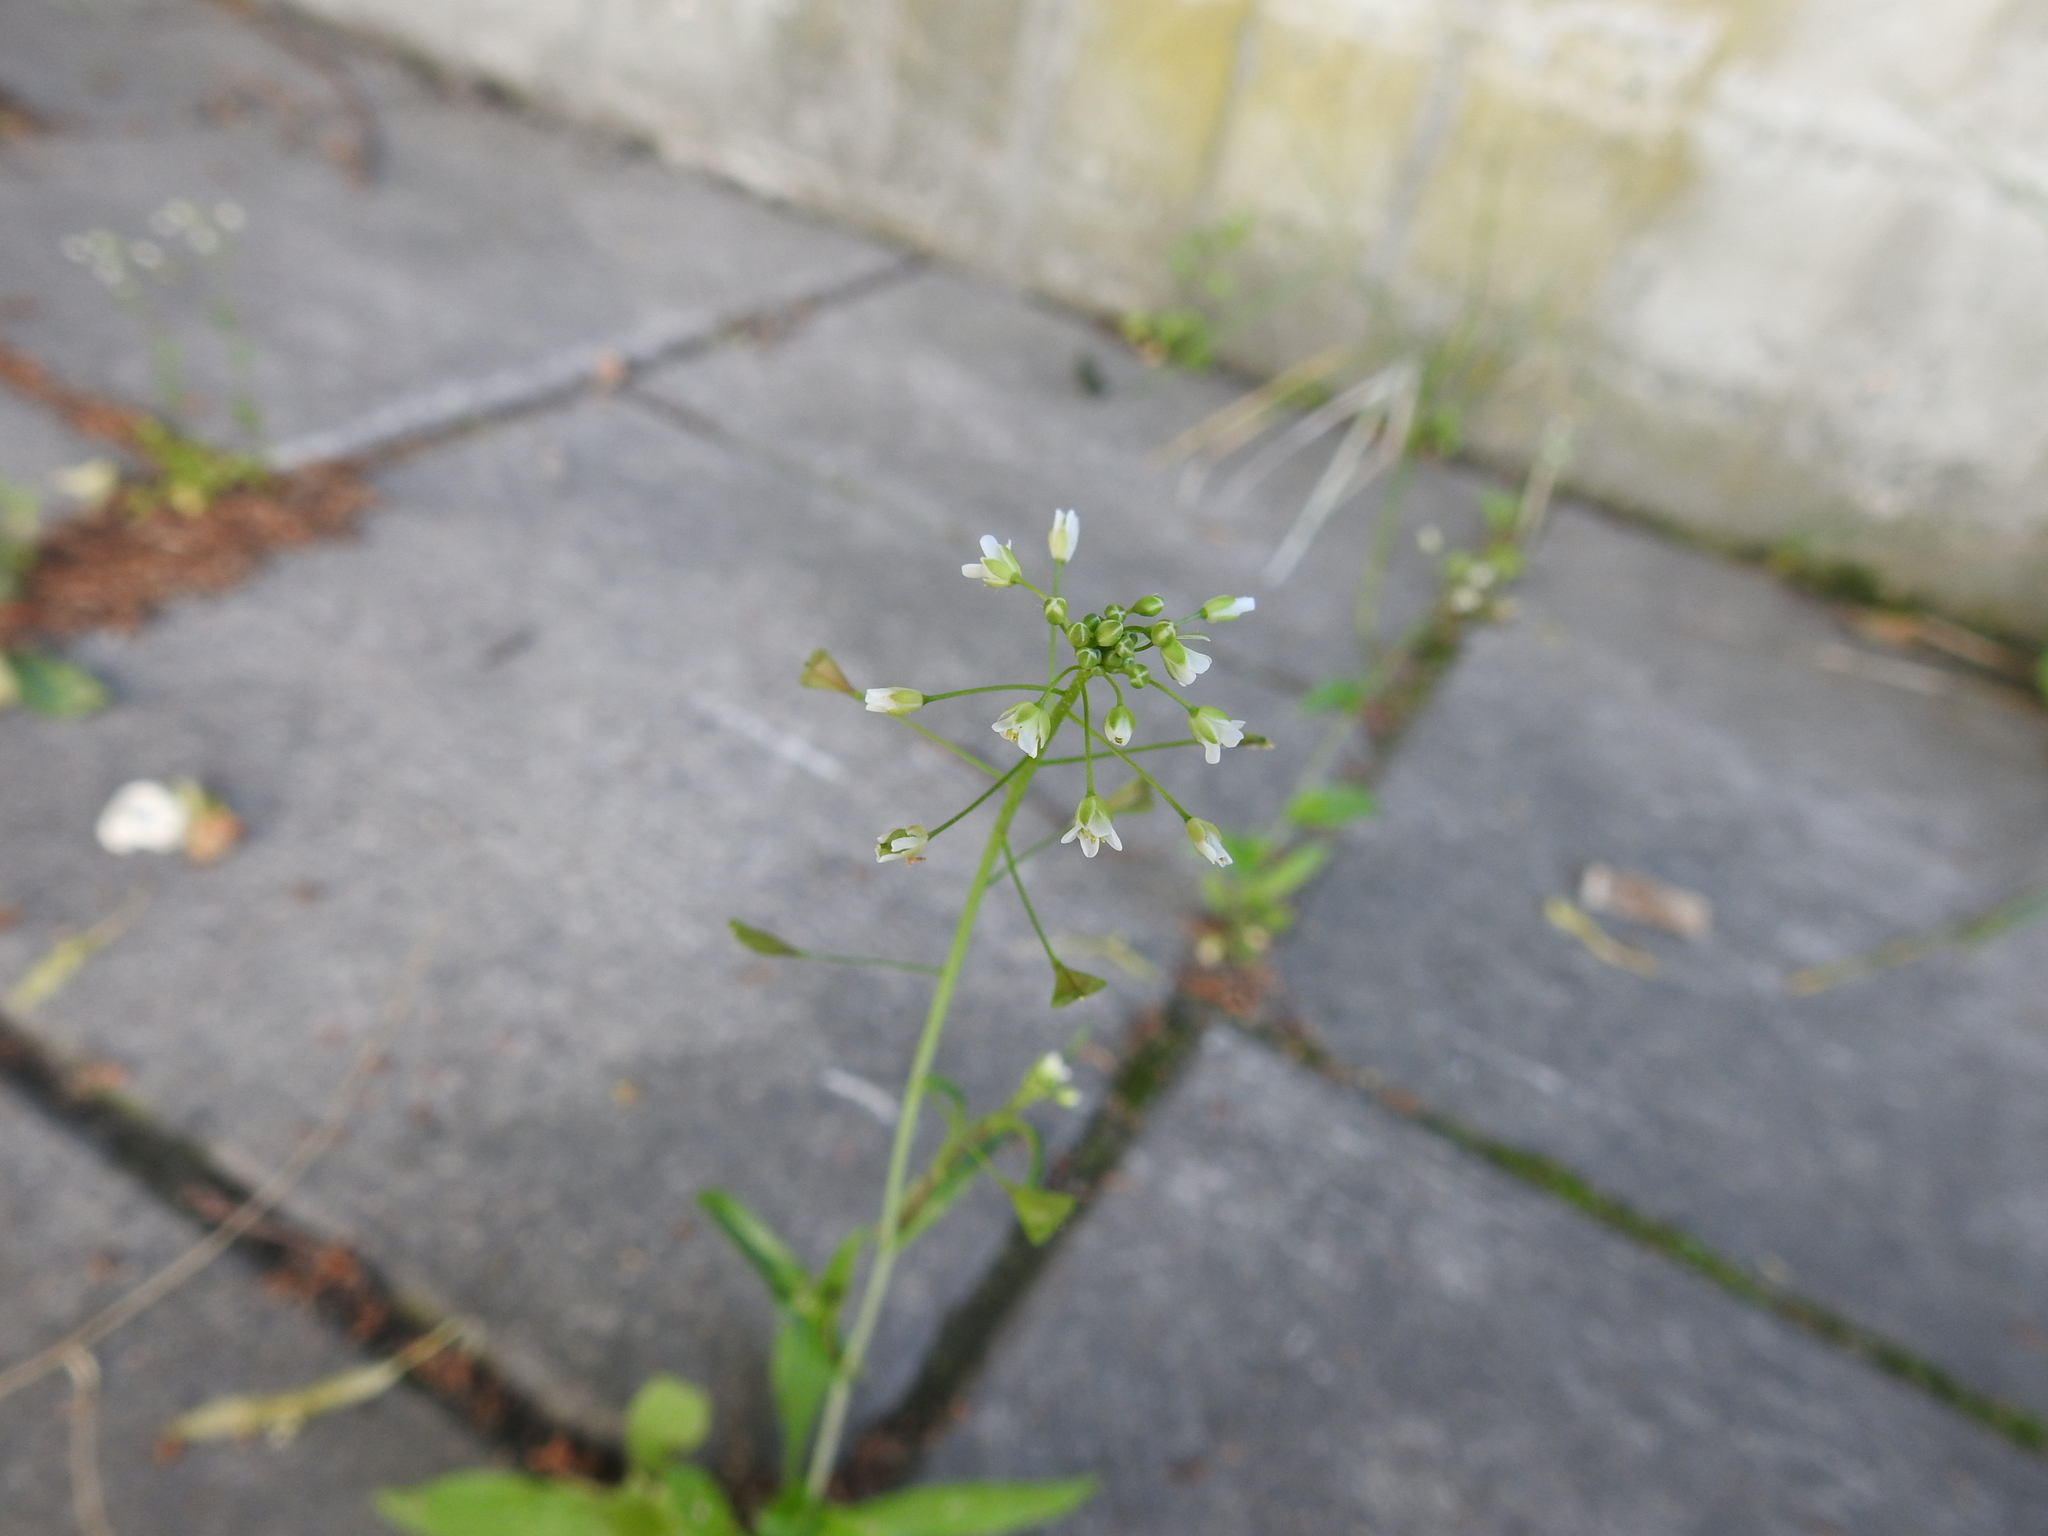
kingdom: Plantae
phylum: Tracheophyta
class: Magnoliopsida
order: Brassicales
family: Brassicaceae
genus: Capsella
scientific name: Capsella bursa-pastoris
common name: Shepherd's purse
